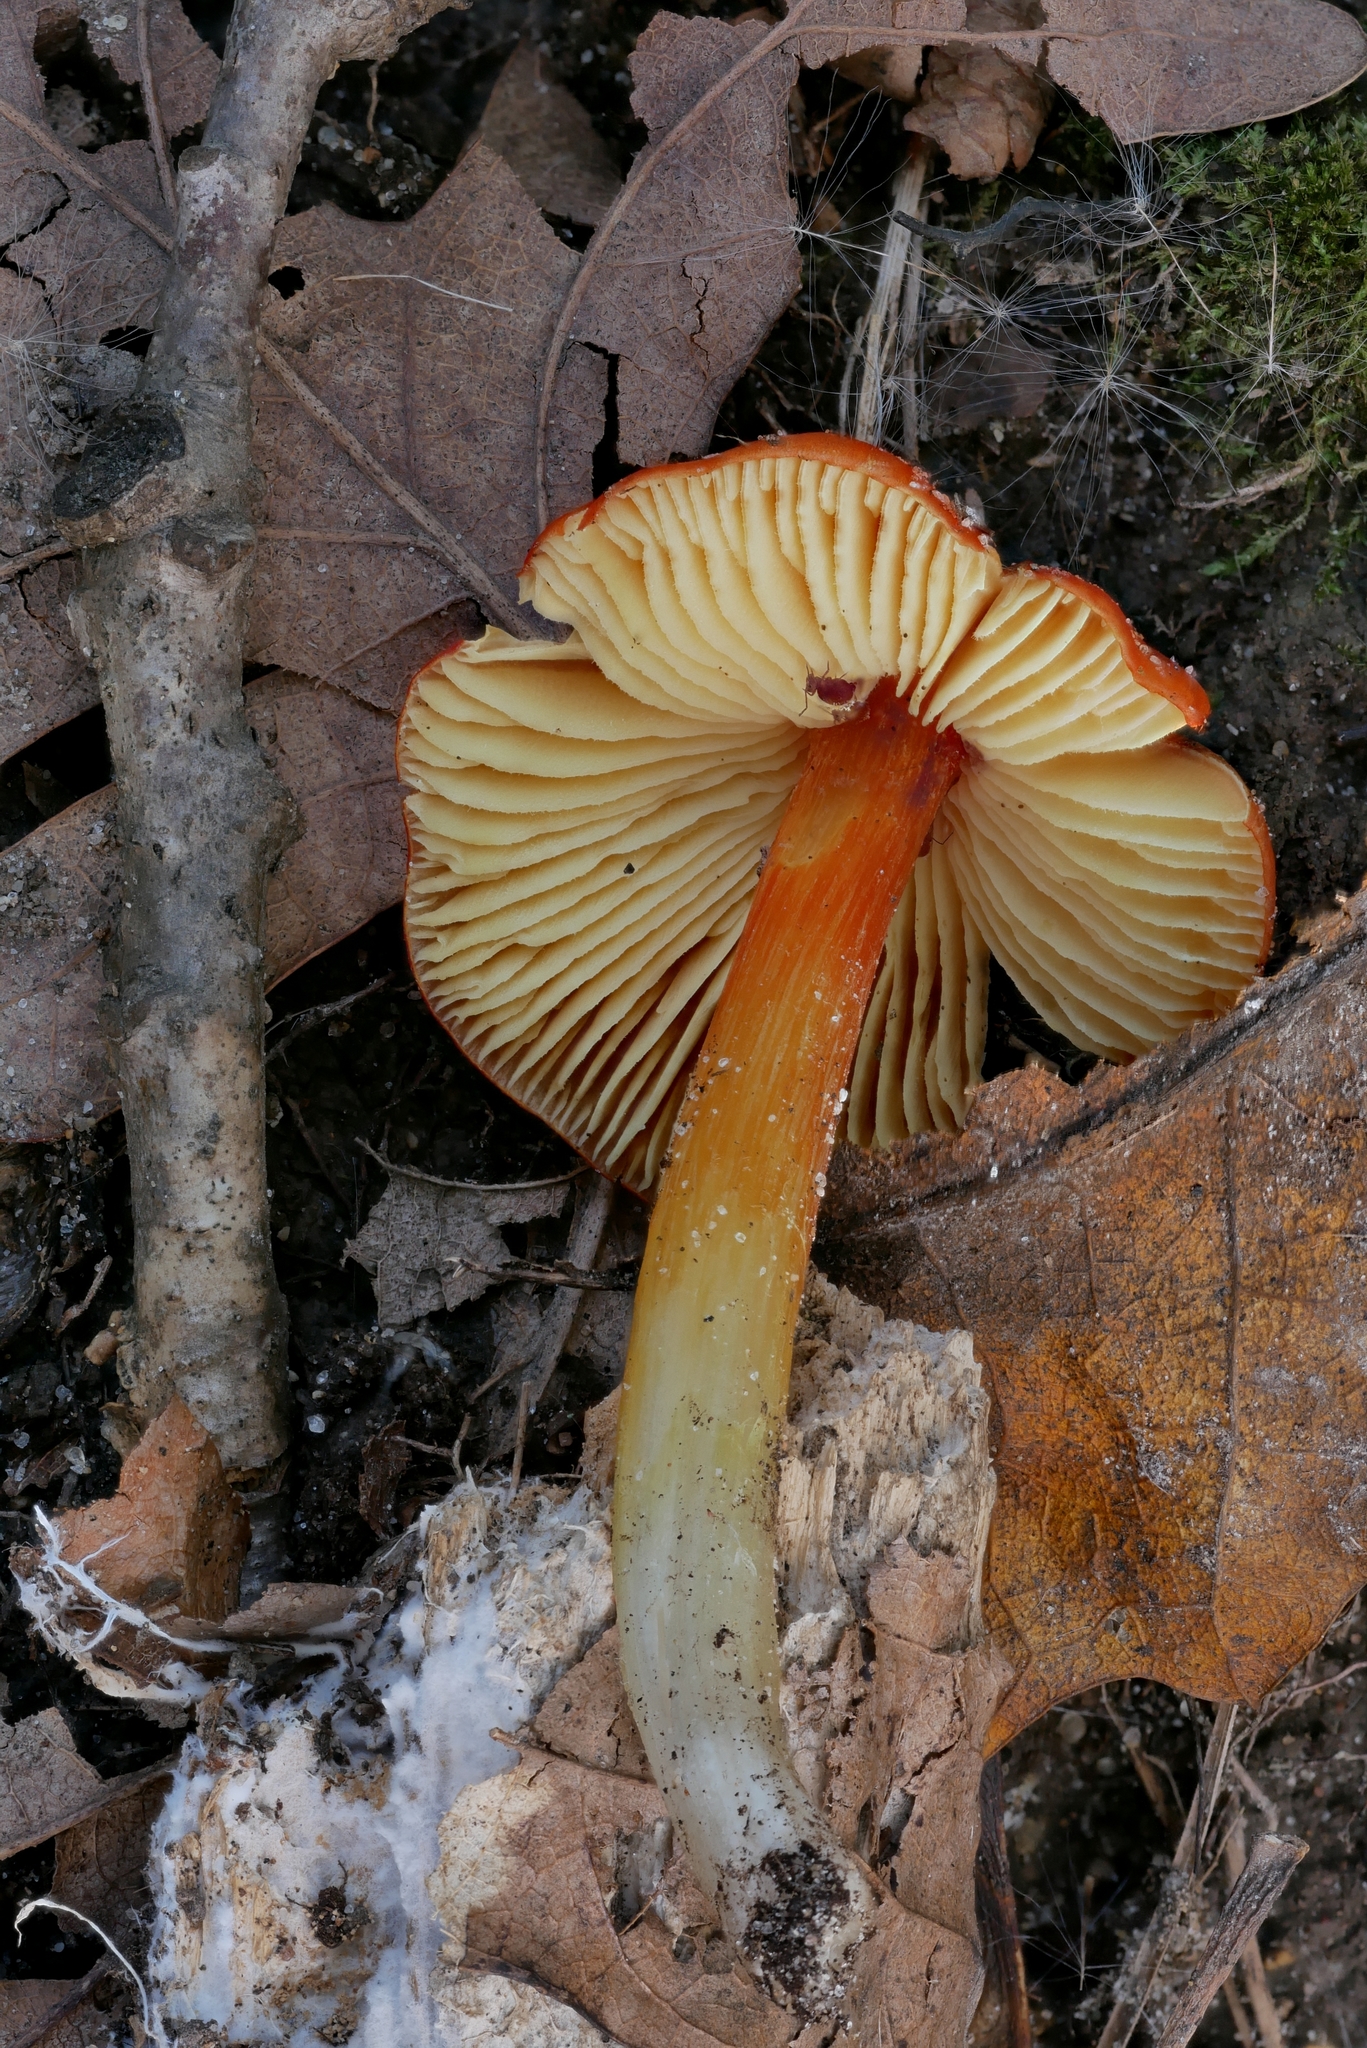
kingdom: Fungi
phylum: Basidiomycota
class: Agaricomycetes
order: Agaricales
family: Hygrophoraceae
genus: Hygrocybe
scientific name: Hygrocybe cuspidata
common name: Candy apple waxy cap
